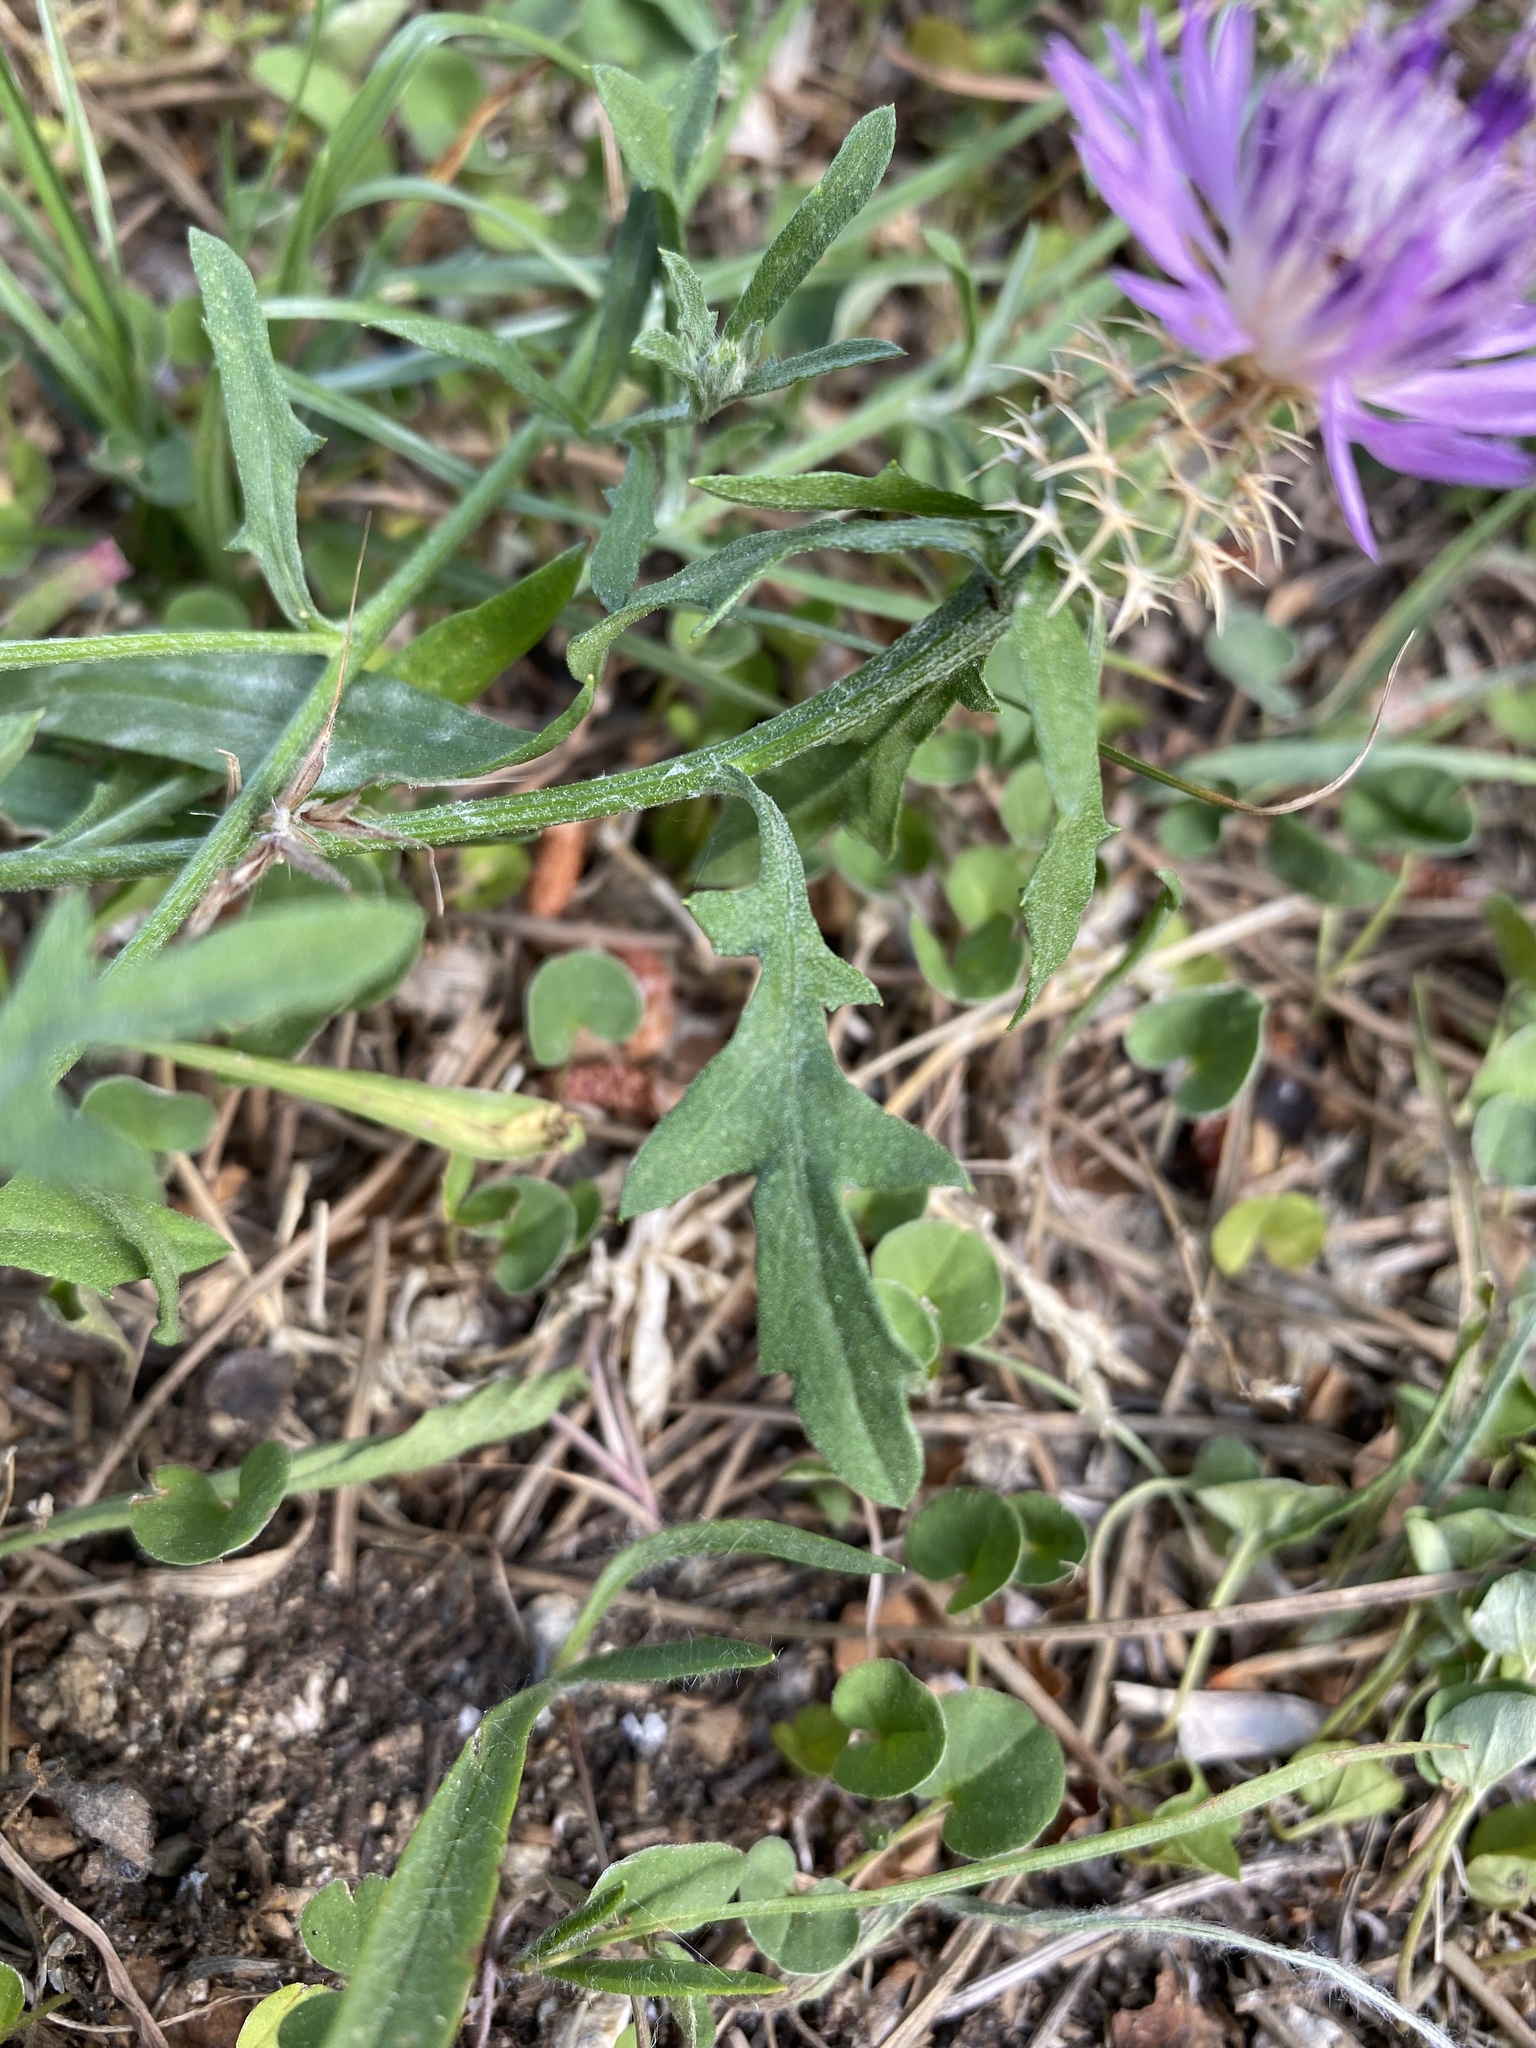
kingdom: Plantae
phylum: Tracheophyta
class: Magnoliopsida
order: Asterales
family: Asteraceae
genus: Centaurea
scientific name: Centaurea aspera
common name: Rough star-thistle
